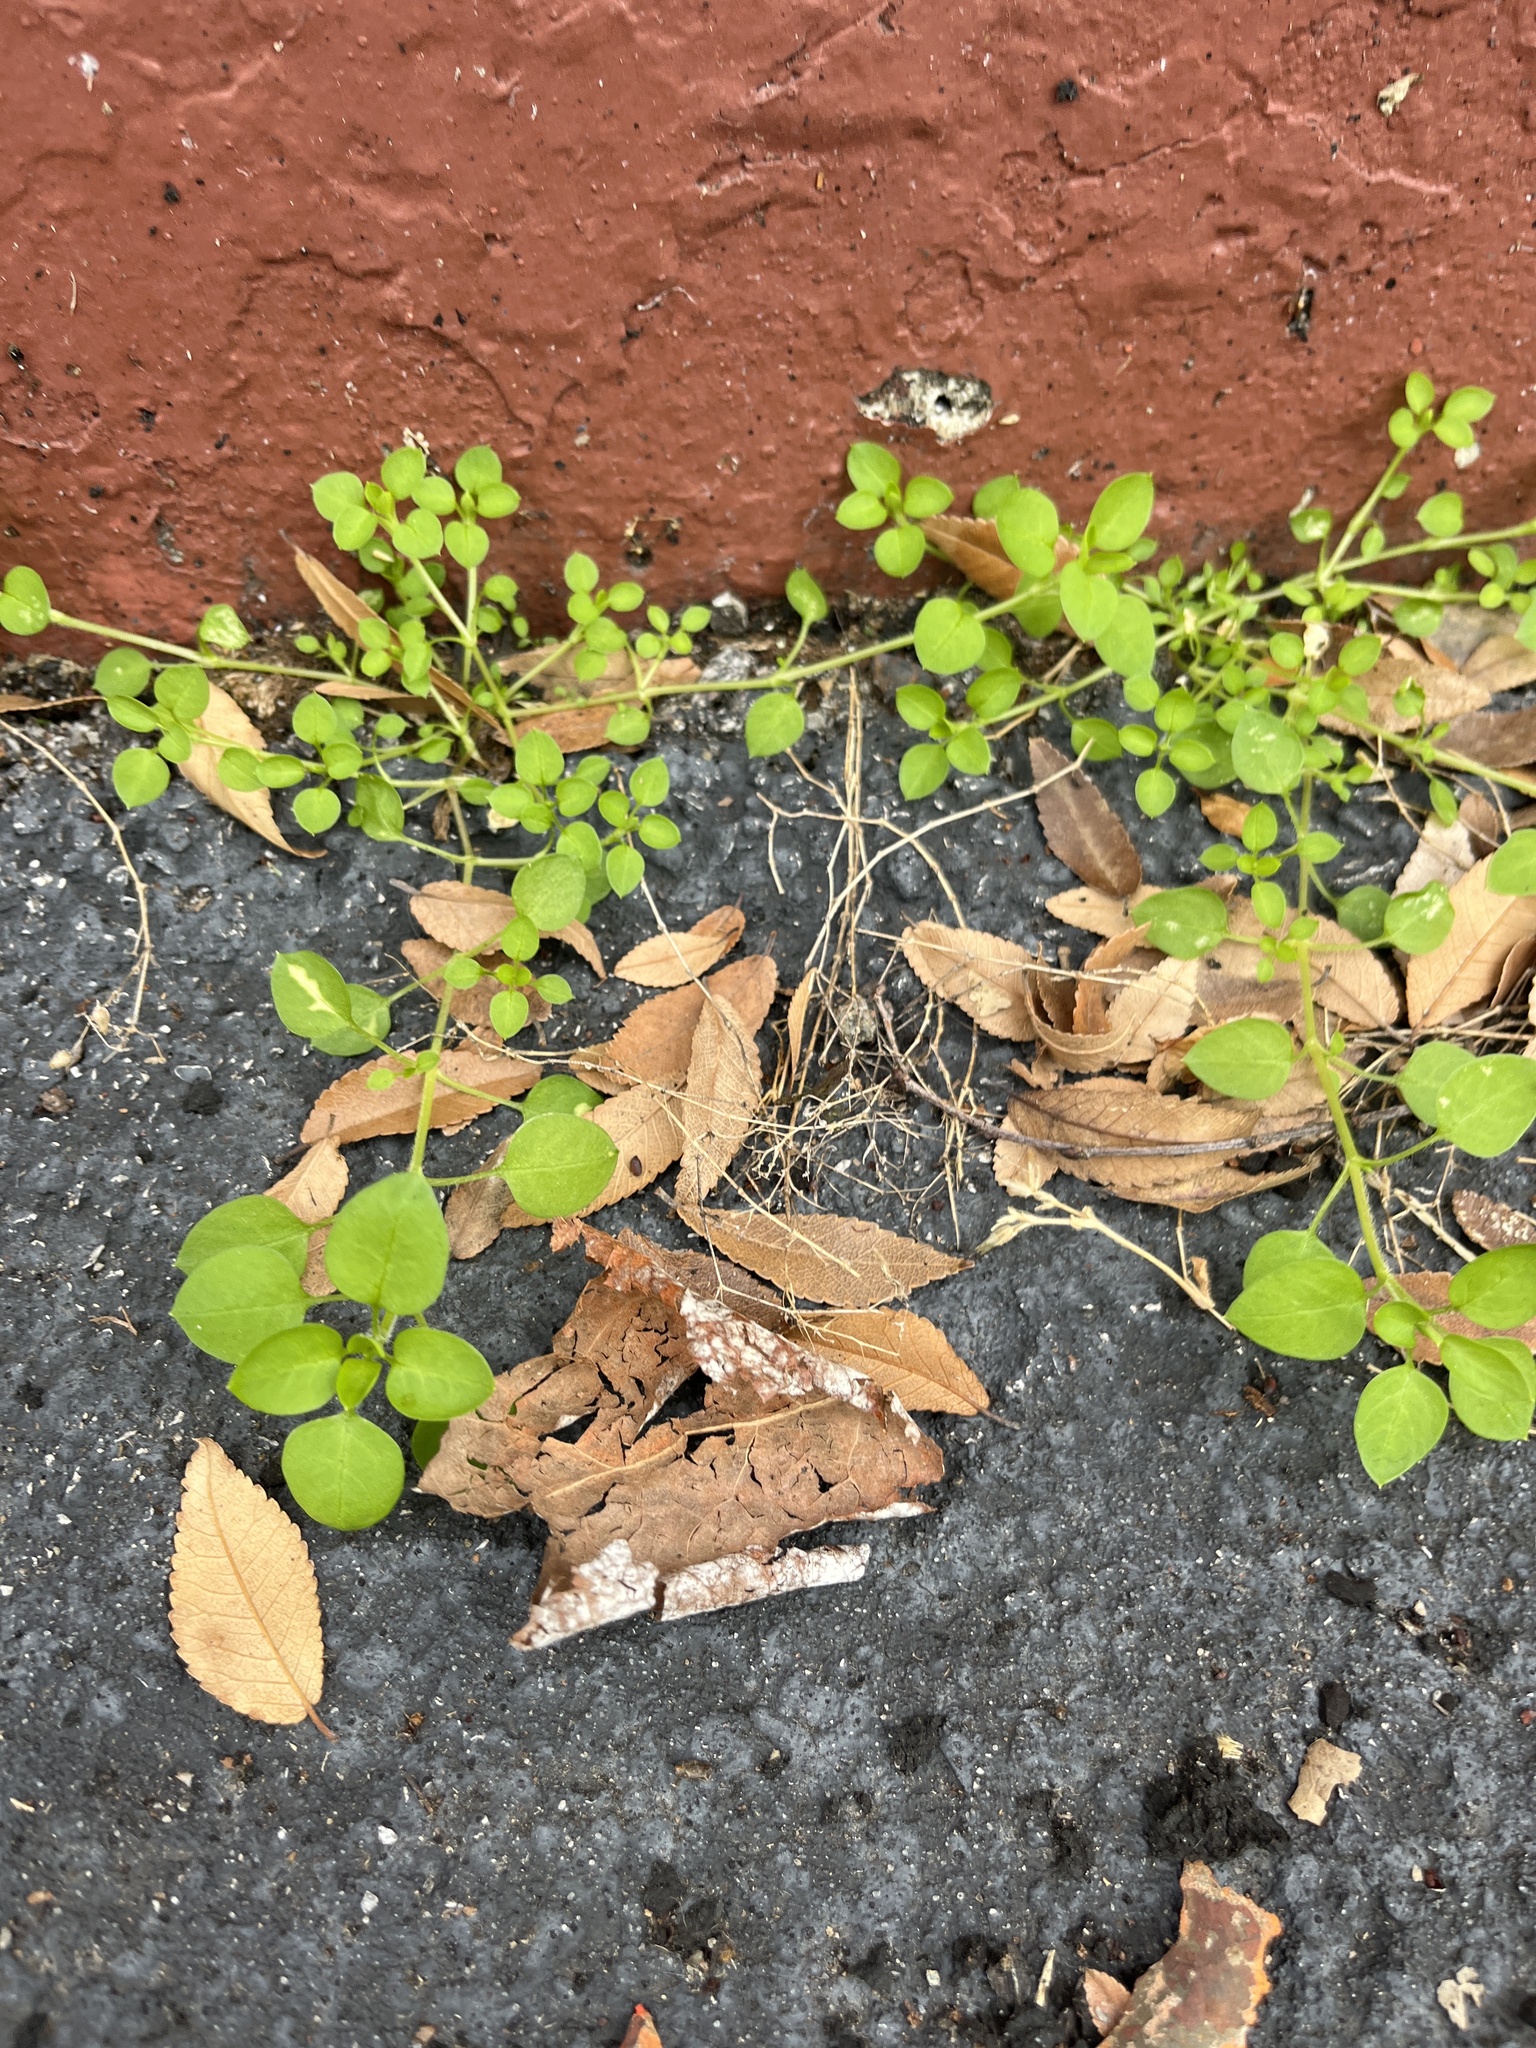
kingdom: Plantae
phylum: Tracheophyta
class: Magnoliopsida
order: Caryophyllales
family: Caryophyllaceae
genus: Stellaria
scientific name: Stellaria media
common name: Common chickweed
